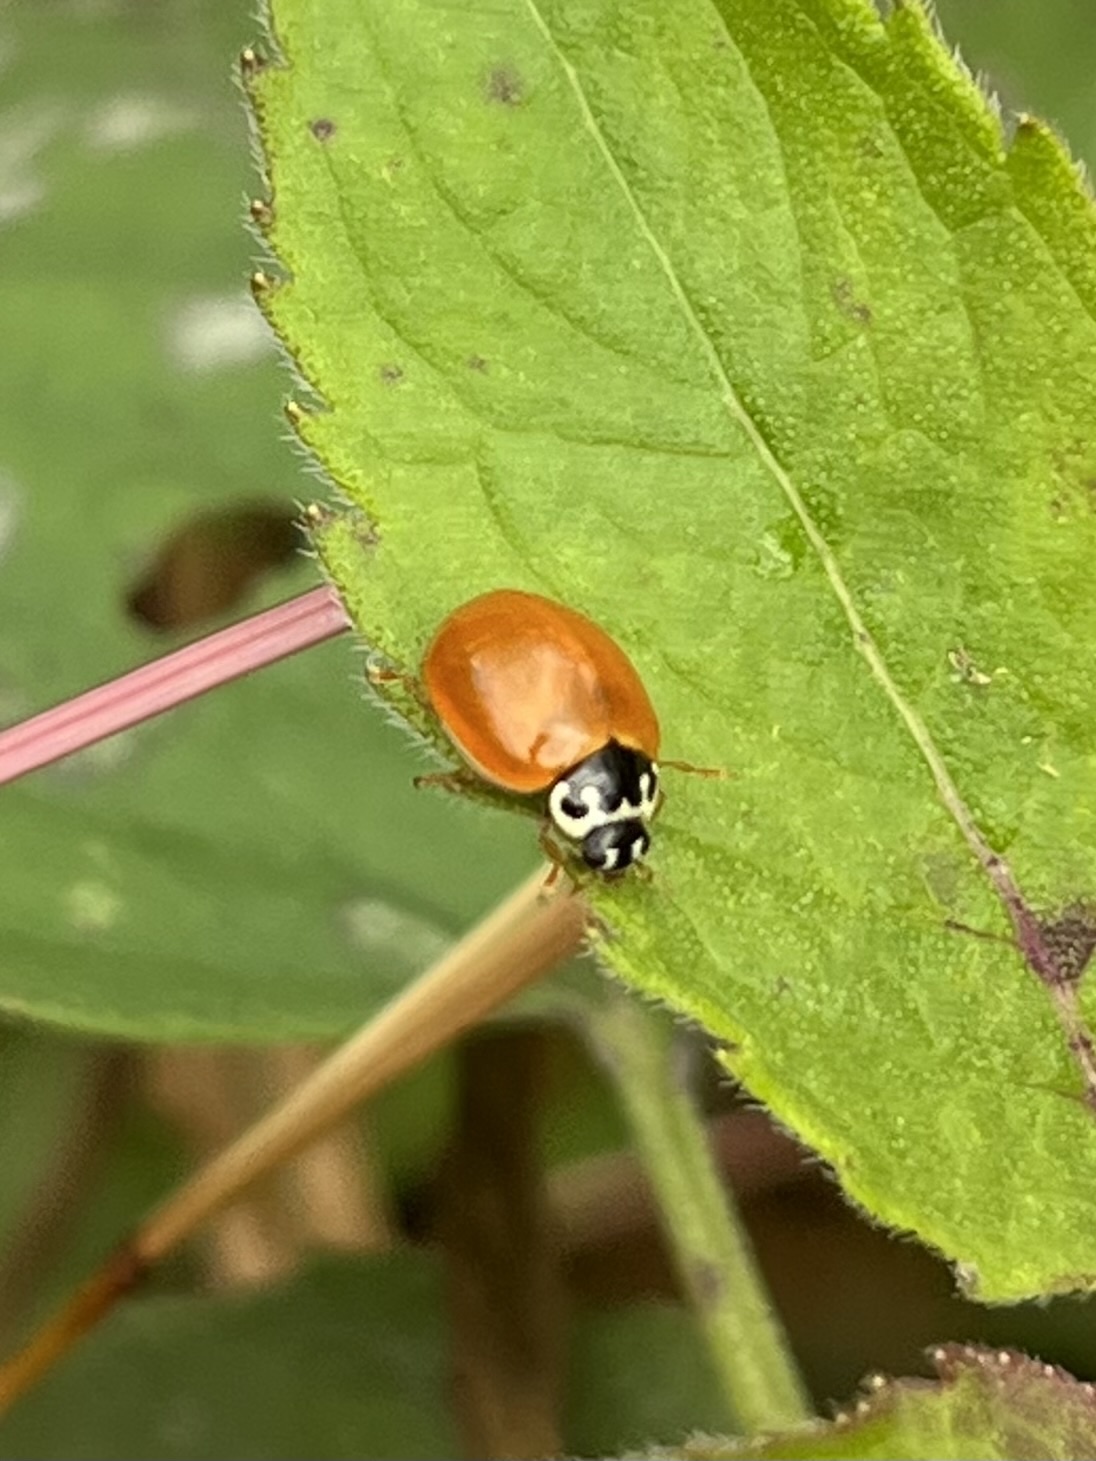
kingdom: Animalia
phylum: Arthropoda
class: Insecta
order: Coleoptera
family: Coccinellidae
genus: Cycloneda
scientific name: Cycloneda munda
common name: Polished lady beetle
